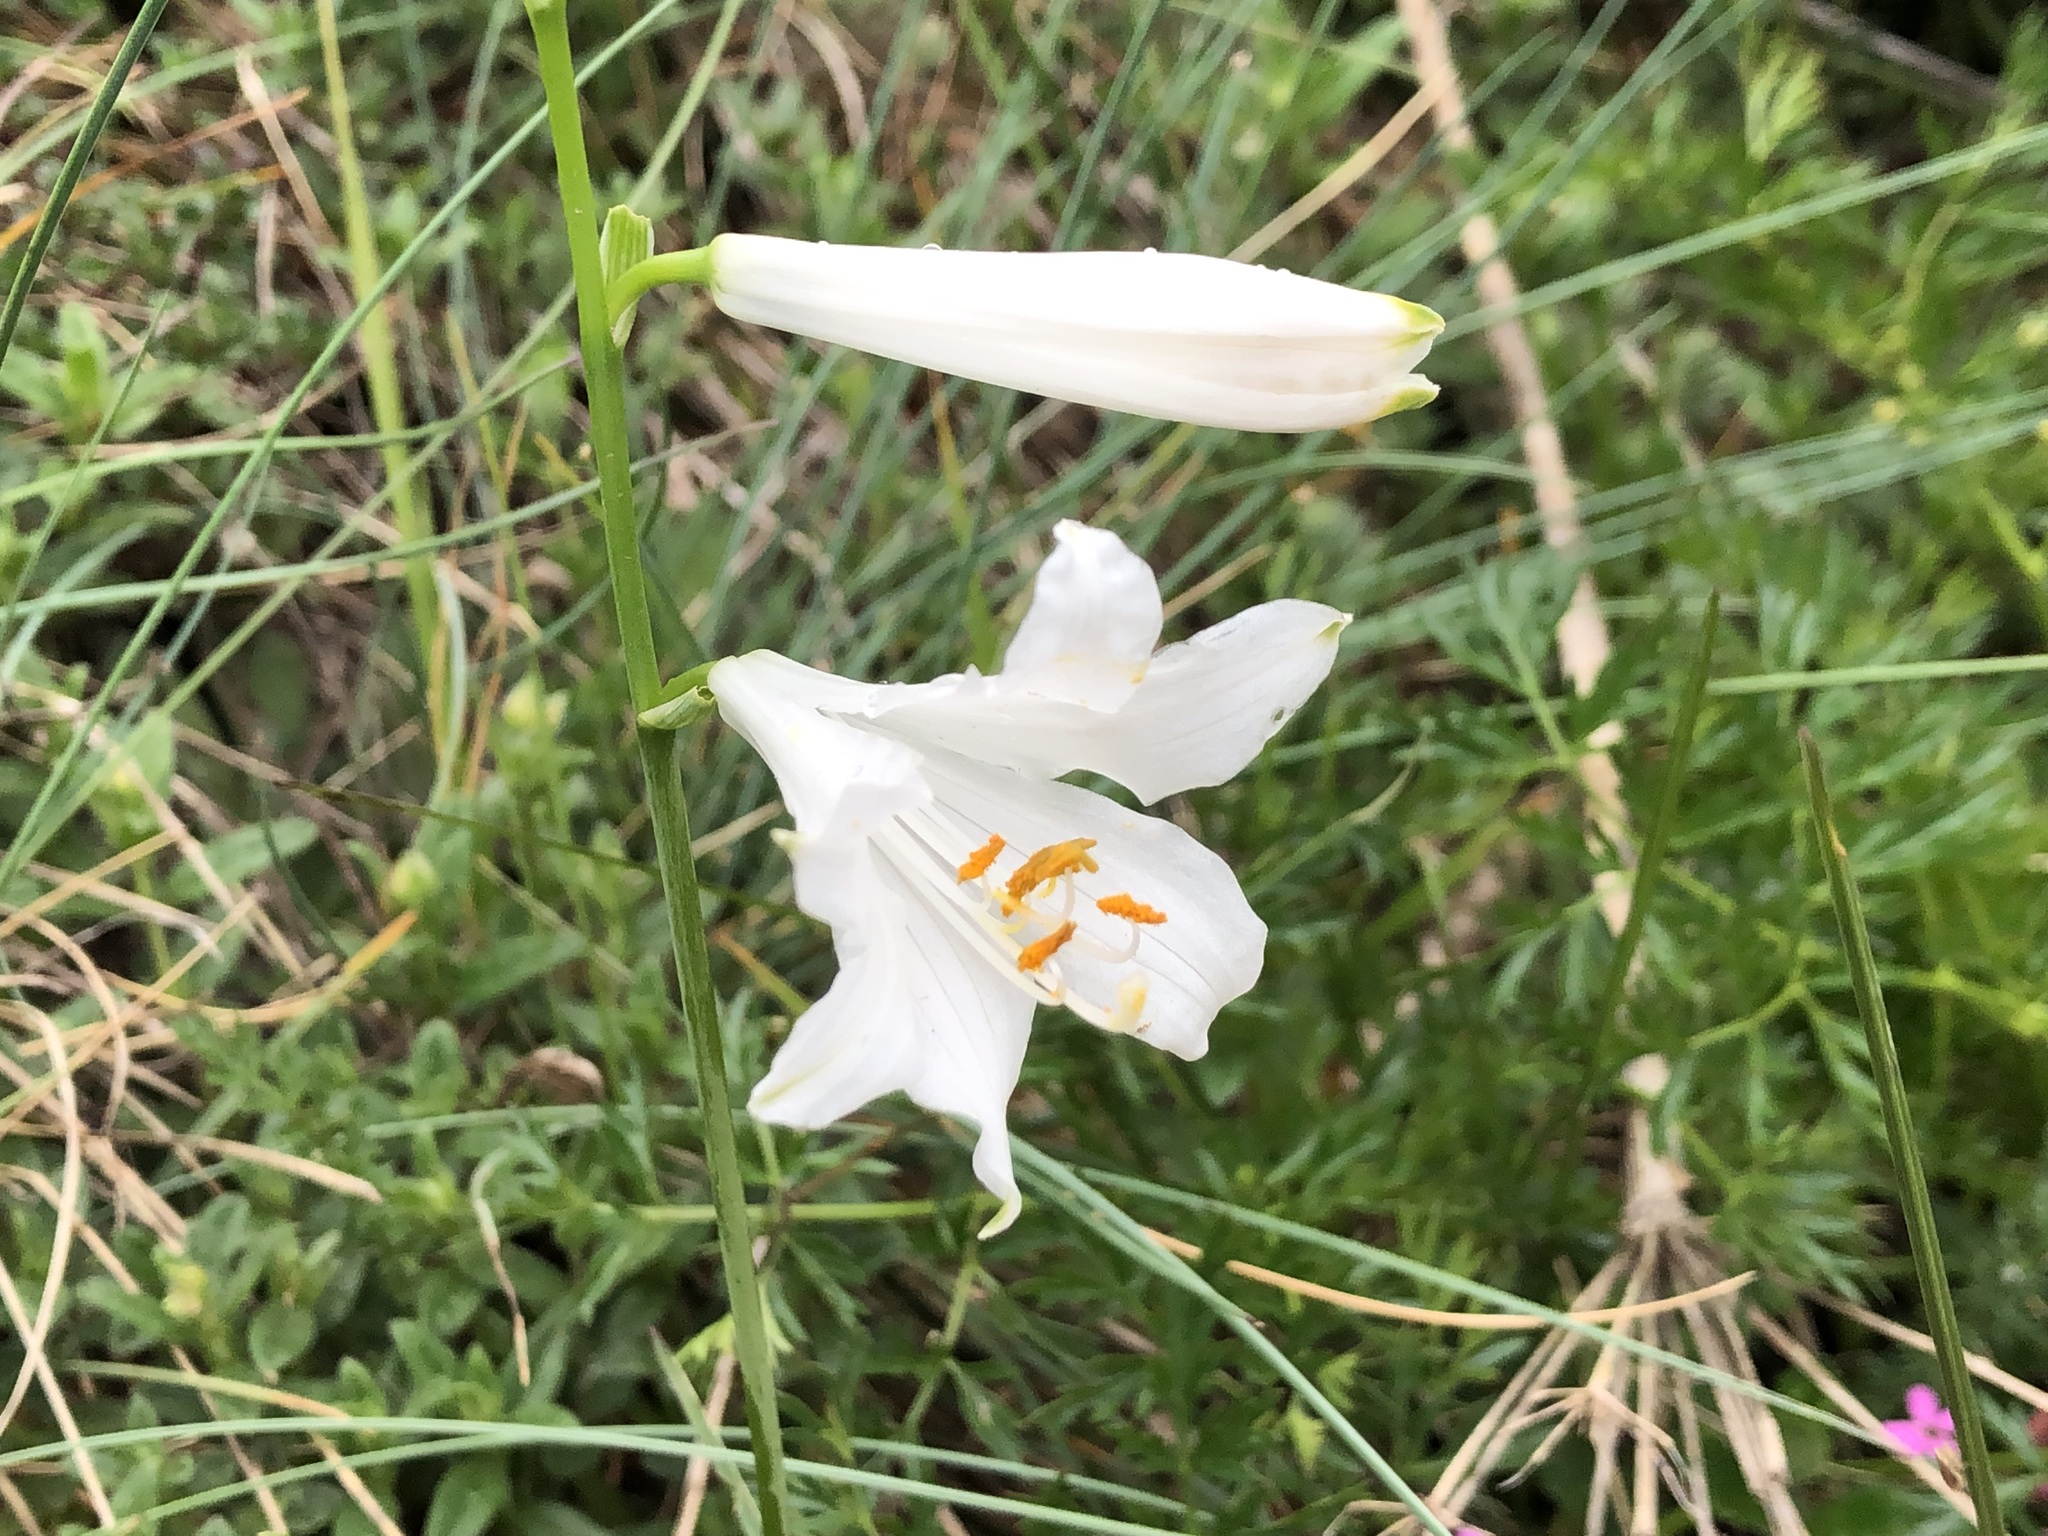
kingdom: Plantae
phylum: Tracheophyta
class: Liliopsida
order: Asparagales
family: Asparagaceae
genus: Paradisea
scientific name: Paradisea liliastrum
